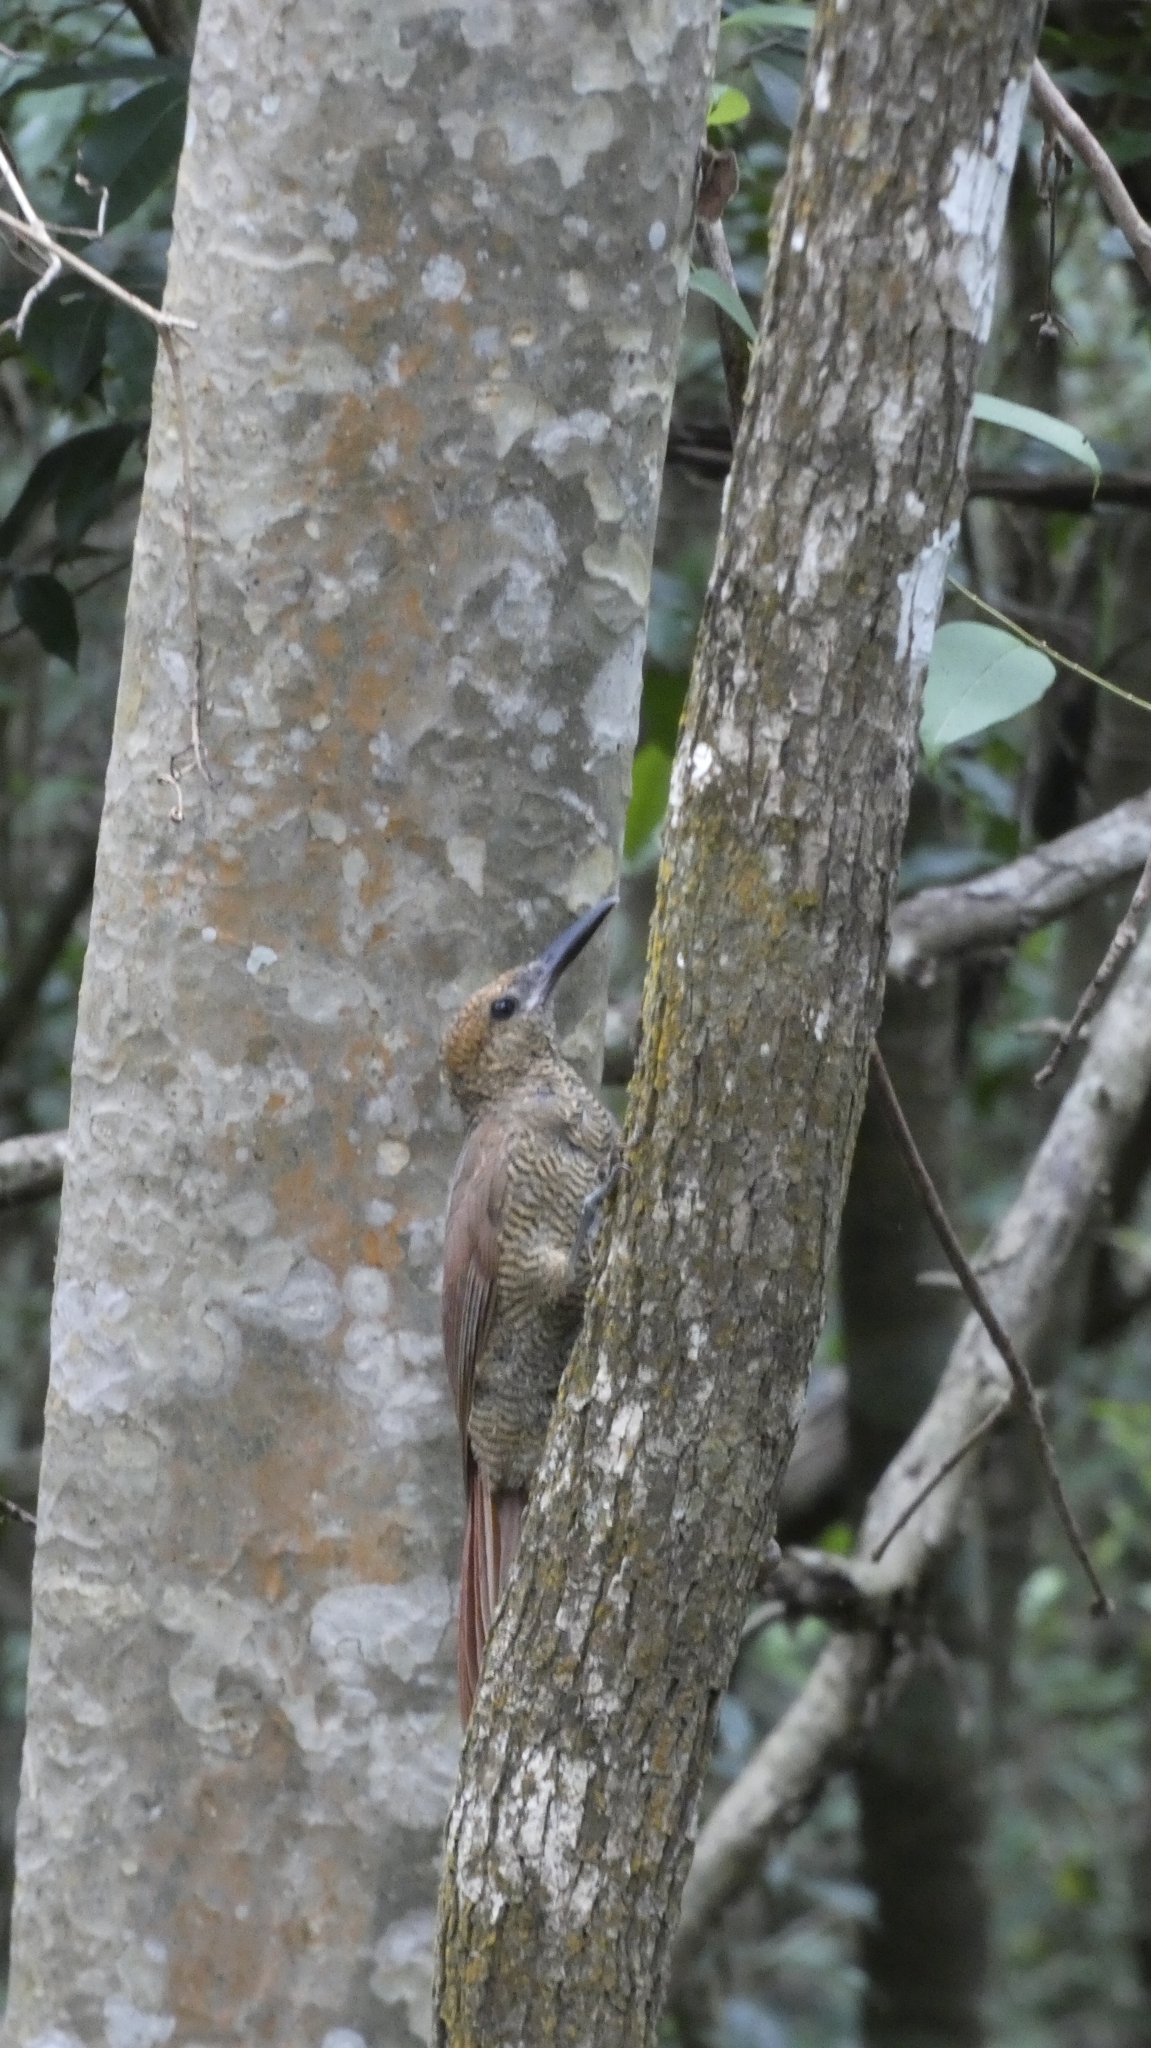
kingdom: Animalia
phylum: Chordata
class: Aves
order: Passeriformes
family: Furnariidae
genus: Dendrocolaptes
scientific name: Dendrocolaptes sanctithomae
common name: Northern barred-woodcreeper
